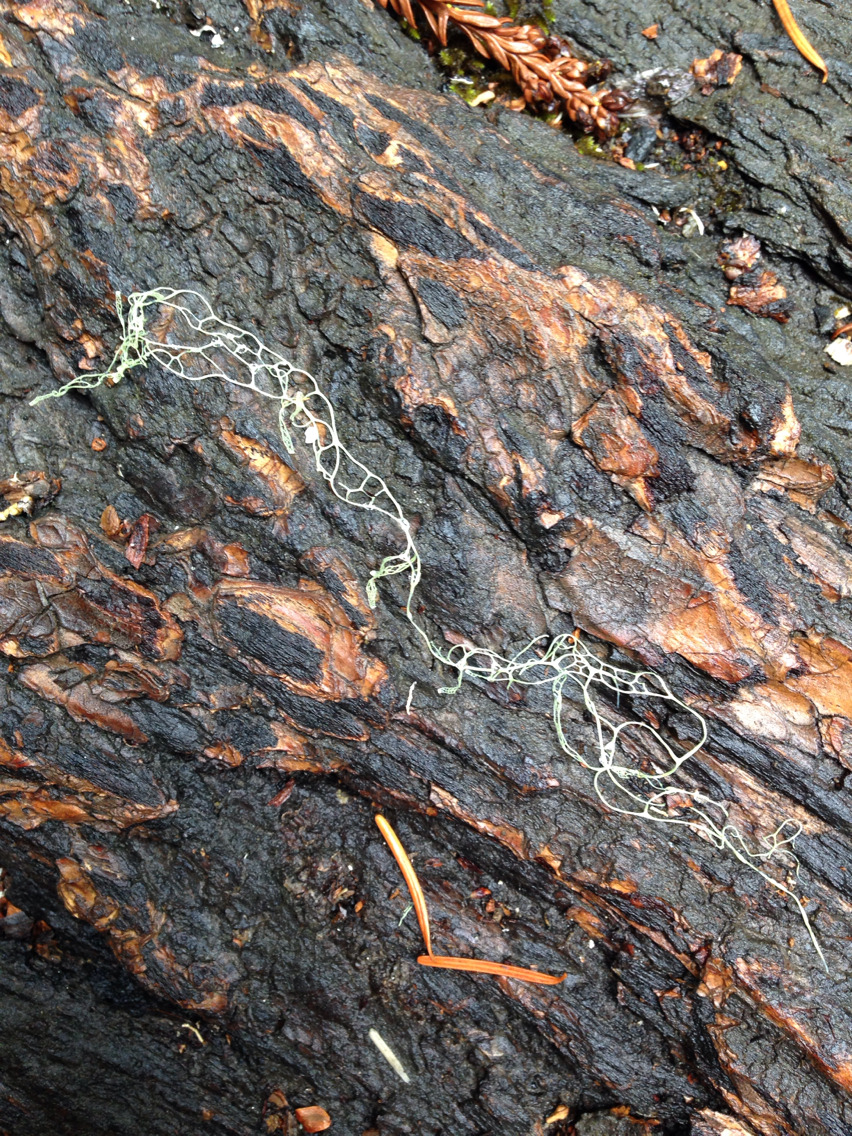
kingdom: Fungi
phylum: Ascomycota
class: Lecanoromycetes
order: Lecanorales
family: Ramalinaceae
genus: Ramalina
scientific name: Ramalina menziesii
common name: Lace lichen
